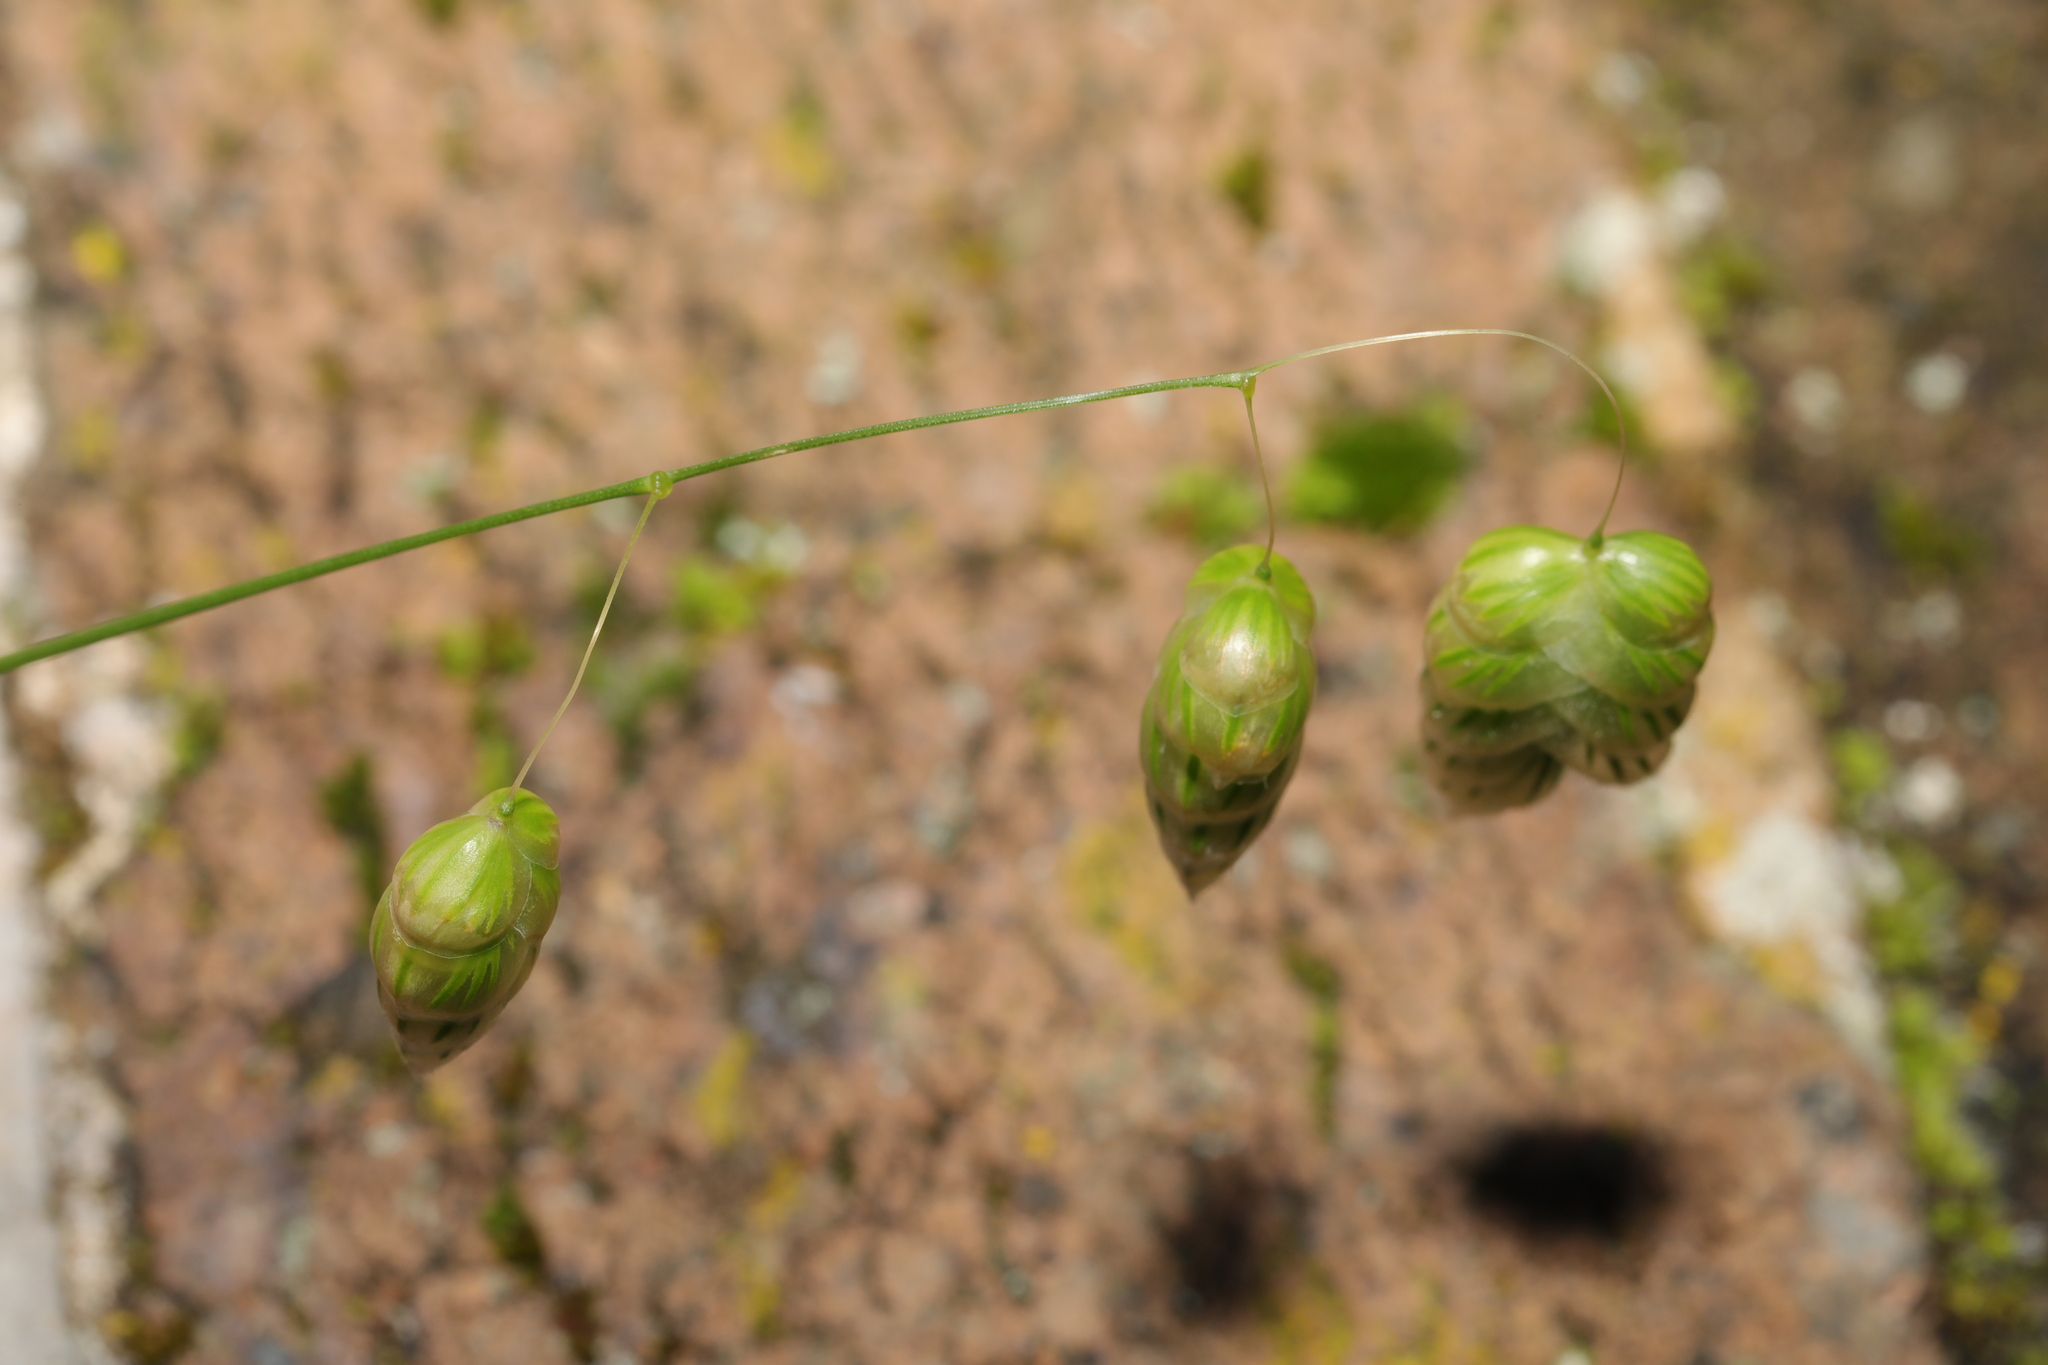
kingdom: Plantae
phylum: Tracheophyta
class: Liliopsida
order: Poales
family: Poaceae
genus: Briza
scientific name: Briza maxima
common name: Big quakinggrass
